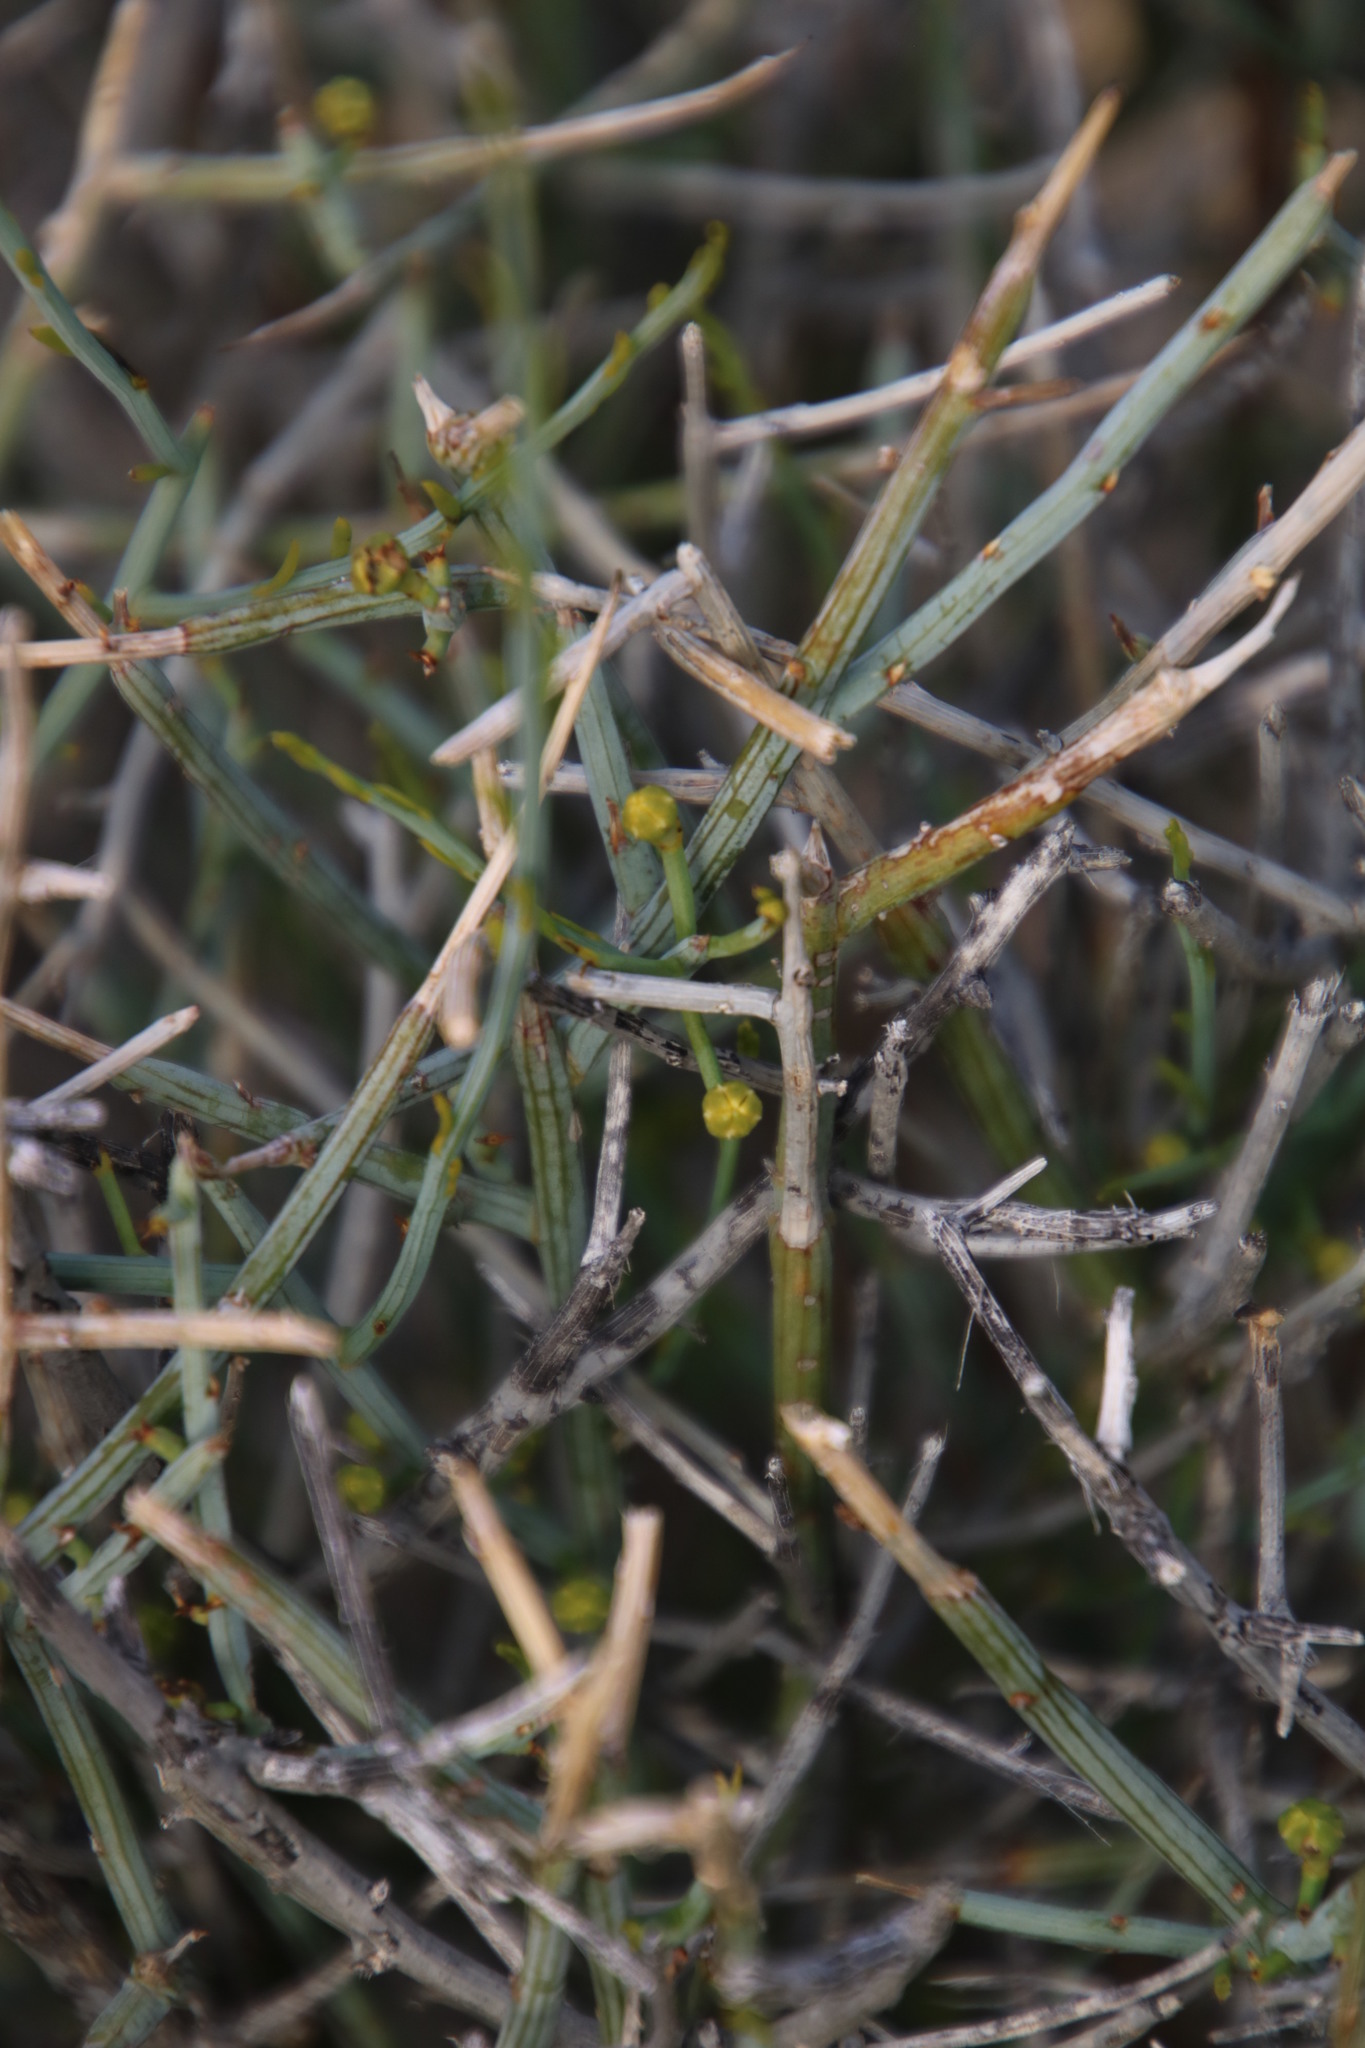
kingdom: Plantae
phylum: Tracheophyta
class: Magnoliopsida
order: Santalales
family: Thesiaceae
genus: Lacomucinaea
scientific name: Lacomucinaea lineata
